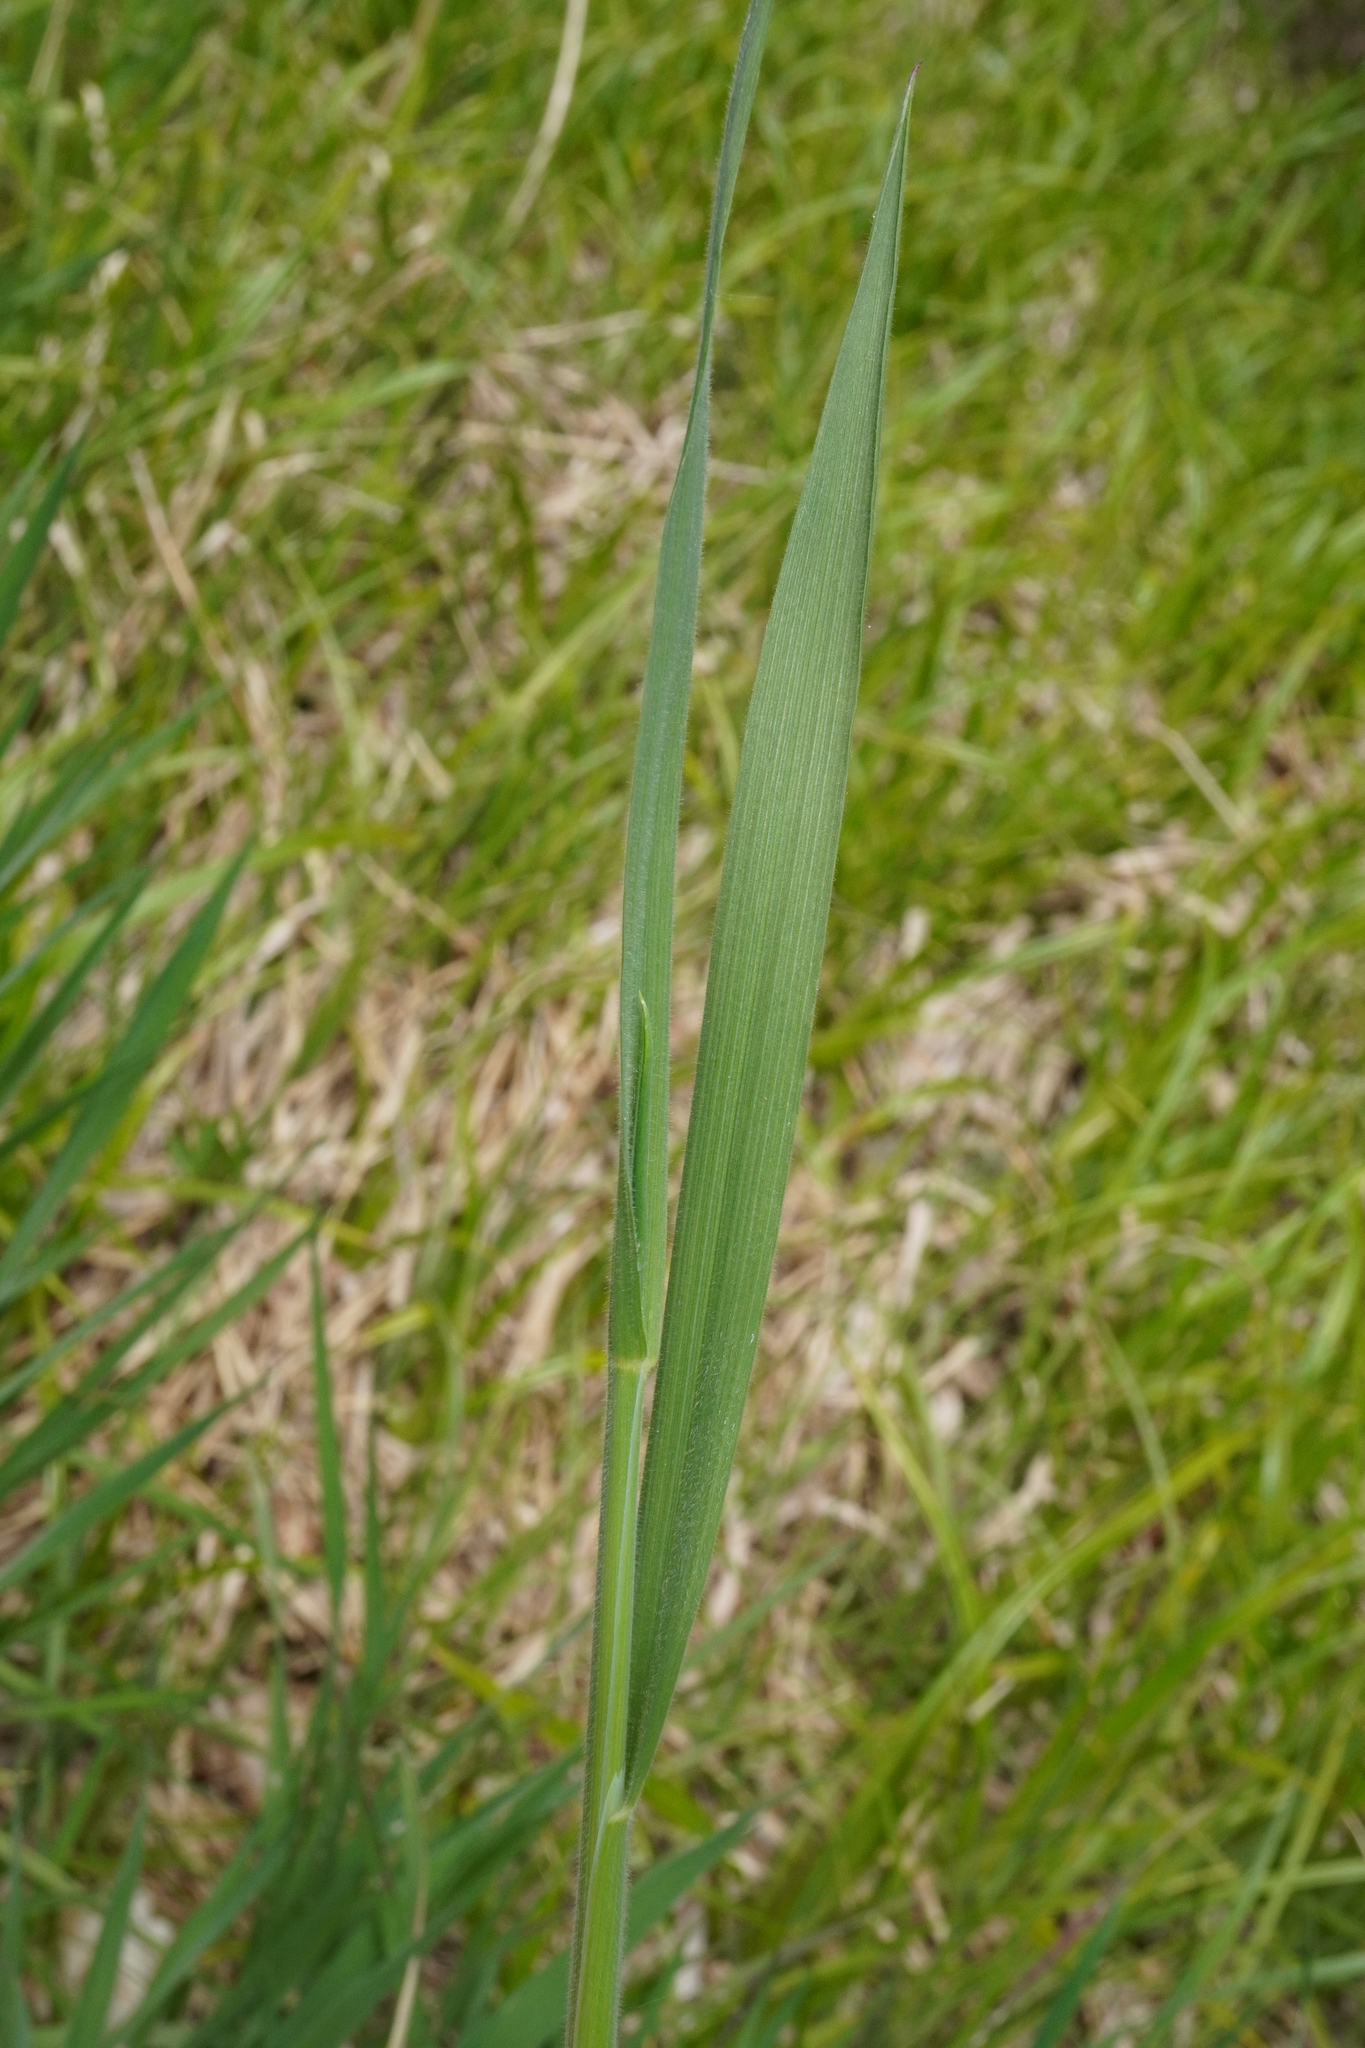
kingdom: Plantae
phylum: Tracheophyta
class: Liliopsida
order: Poales
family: Poaceae
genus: Holcus
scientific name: Holcus lanatus
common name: Yorkshire-fog
